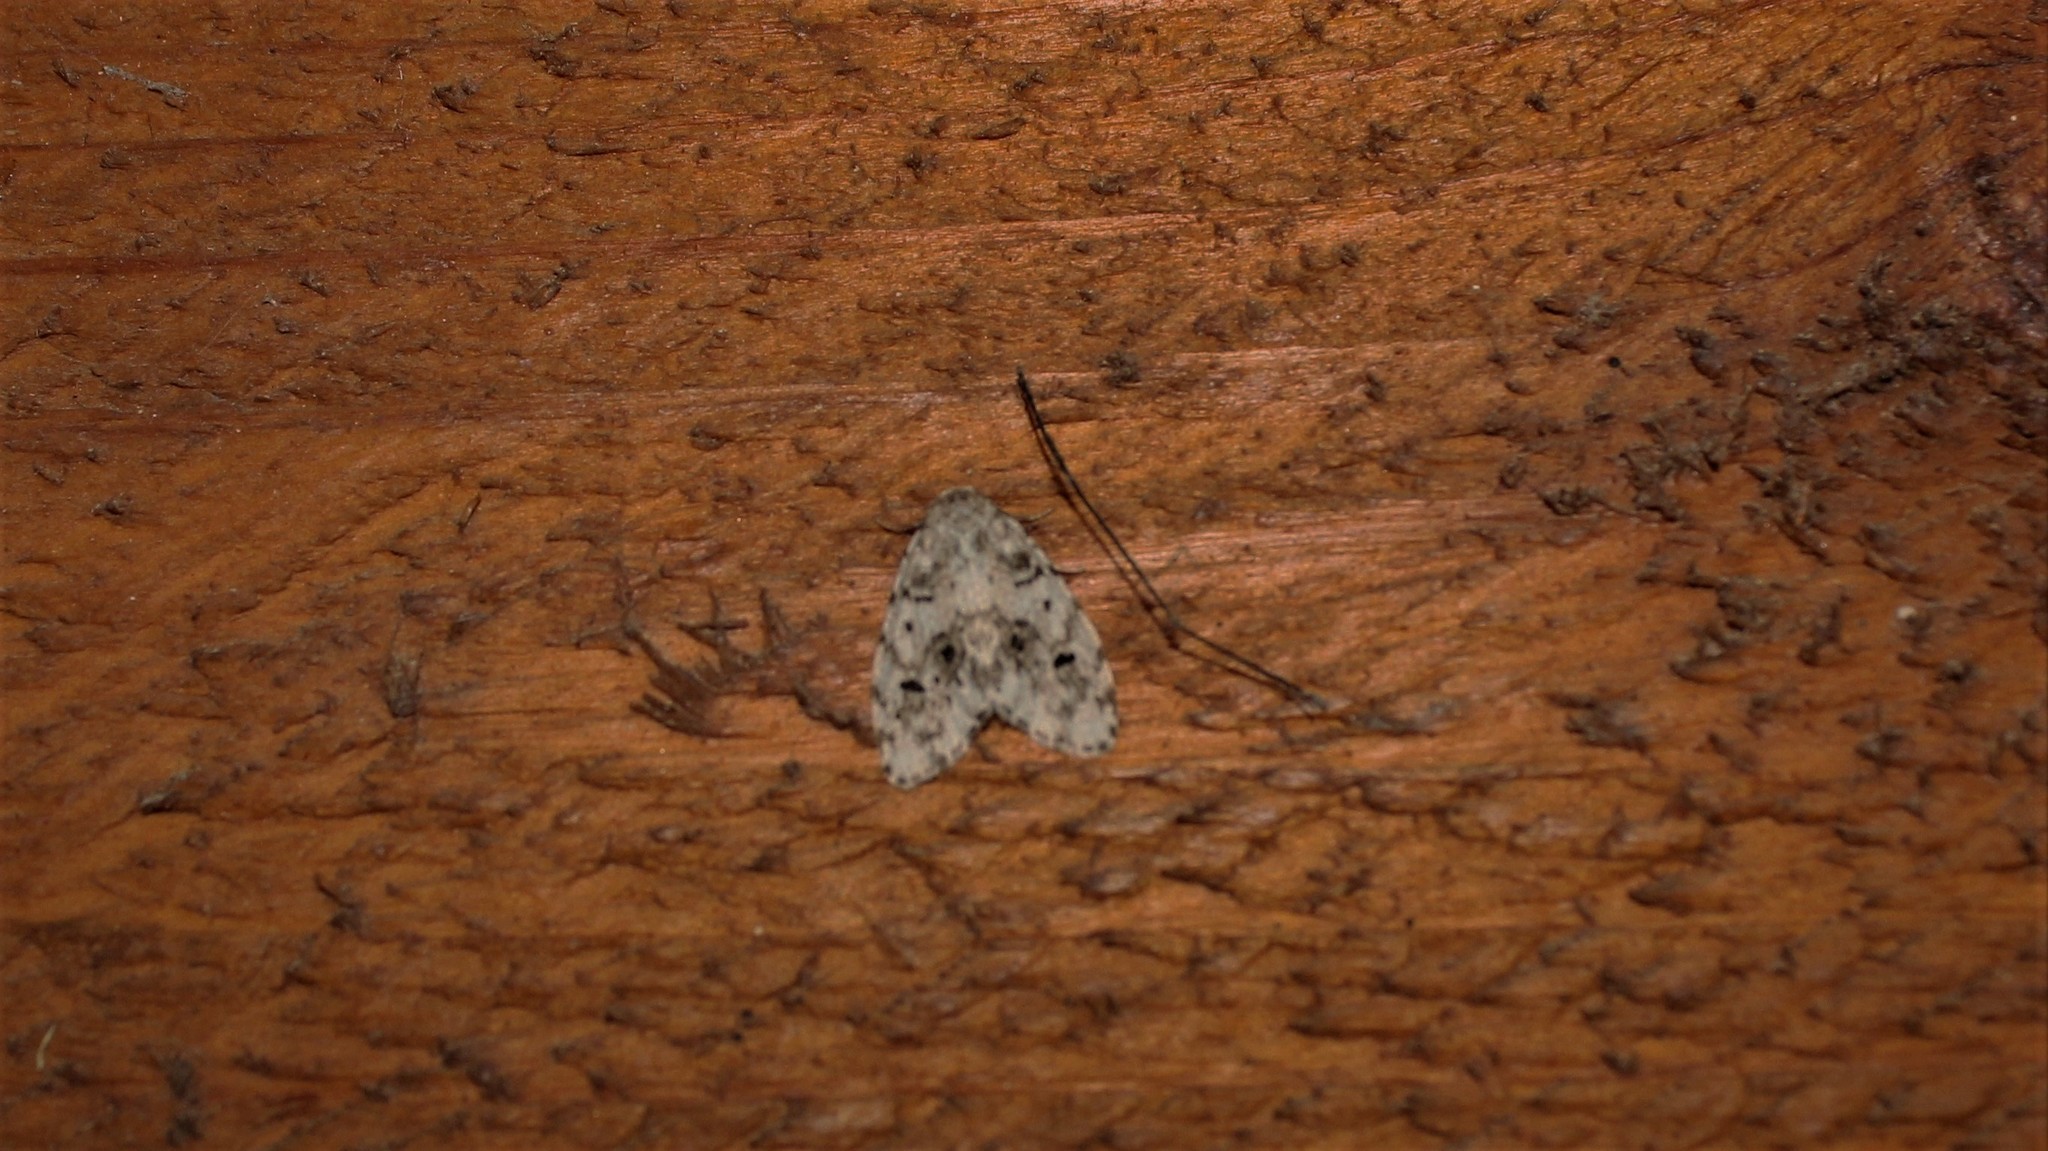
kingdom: Animalia
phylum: Arthropoda
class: Insecta
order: Lepidoptera
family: Erebidae
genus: Clemensia
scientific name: Clemensia umbrata
